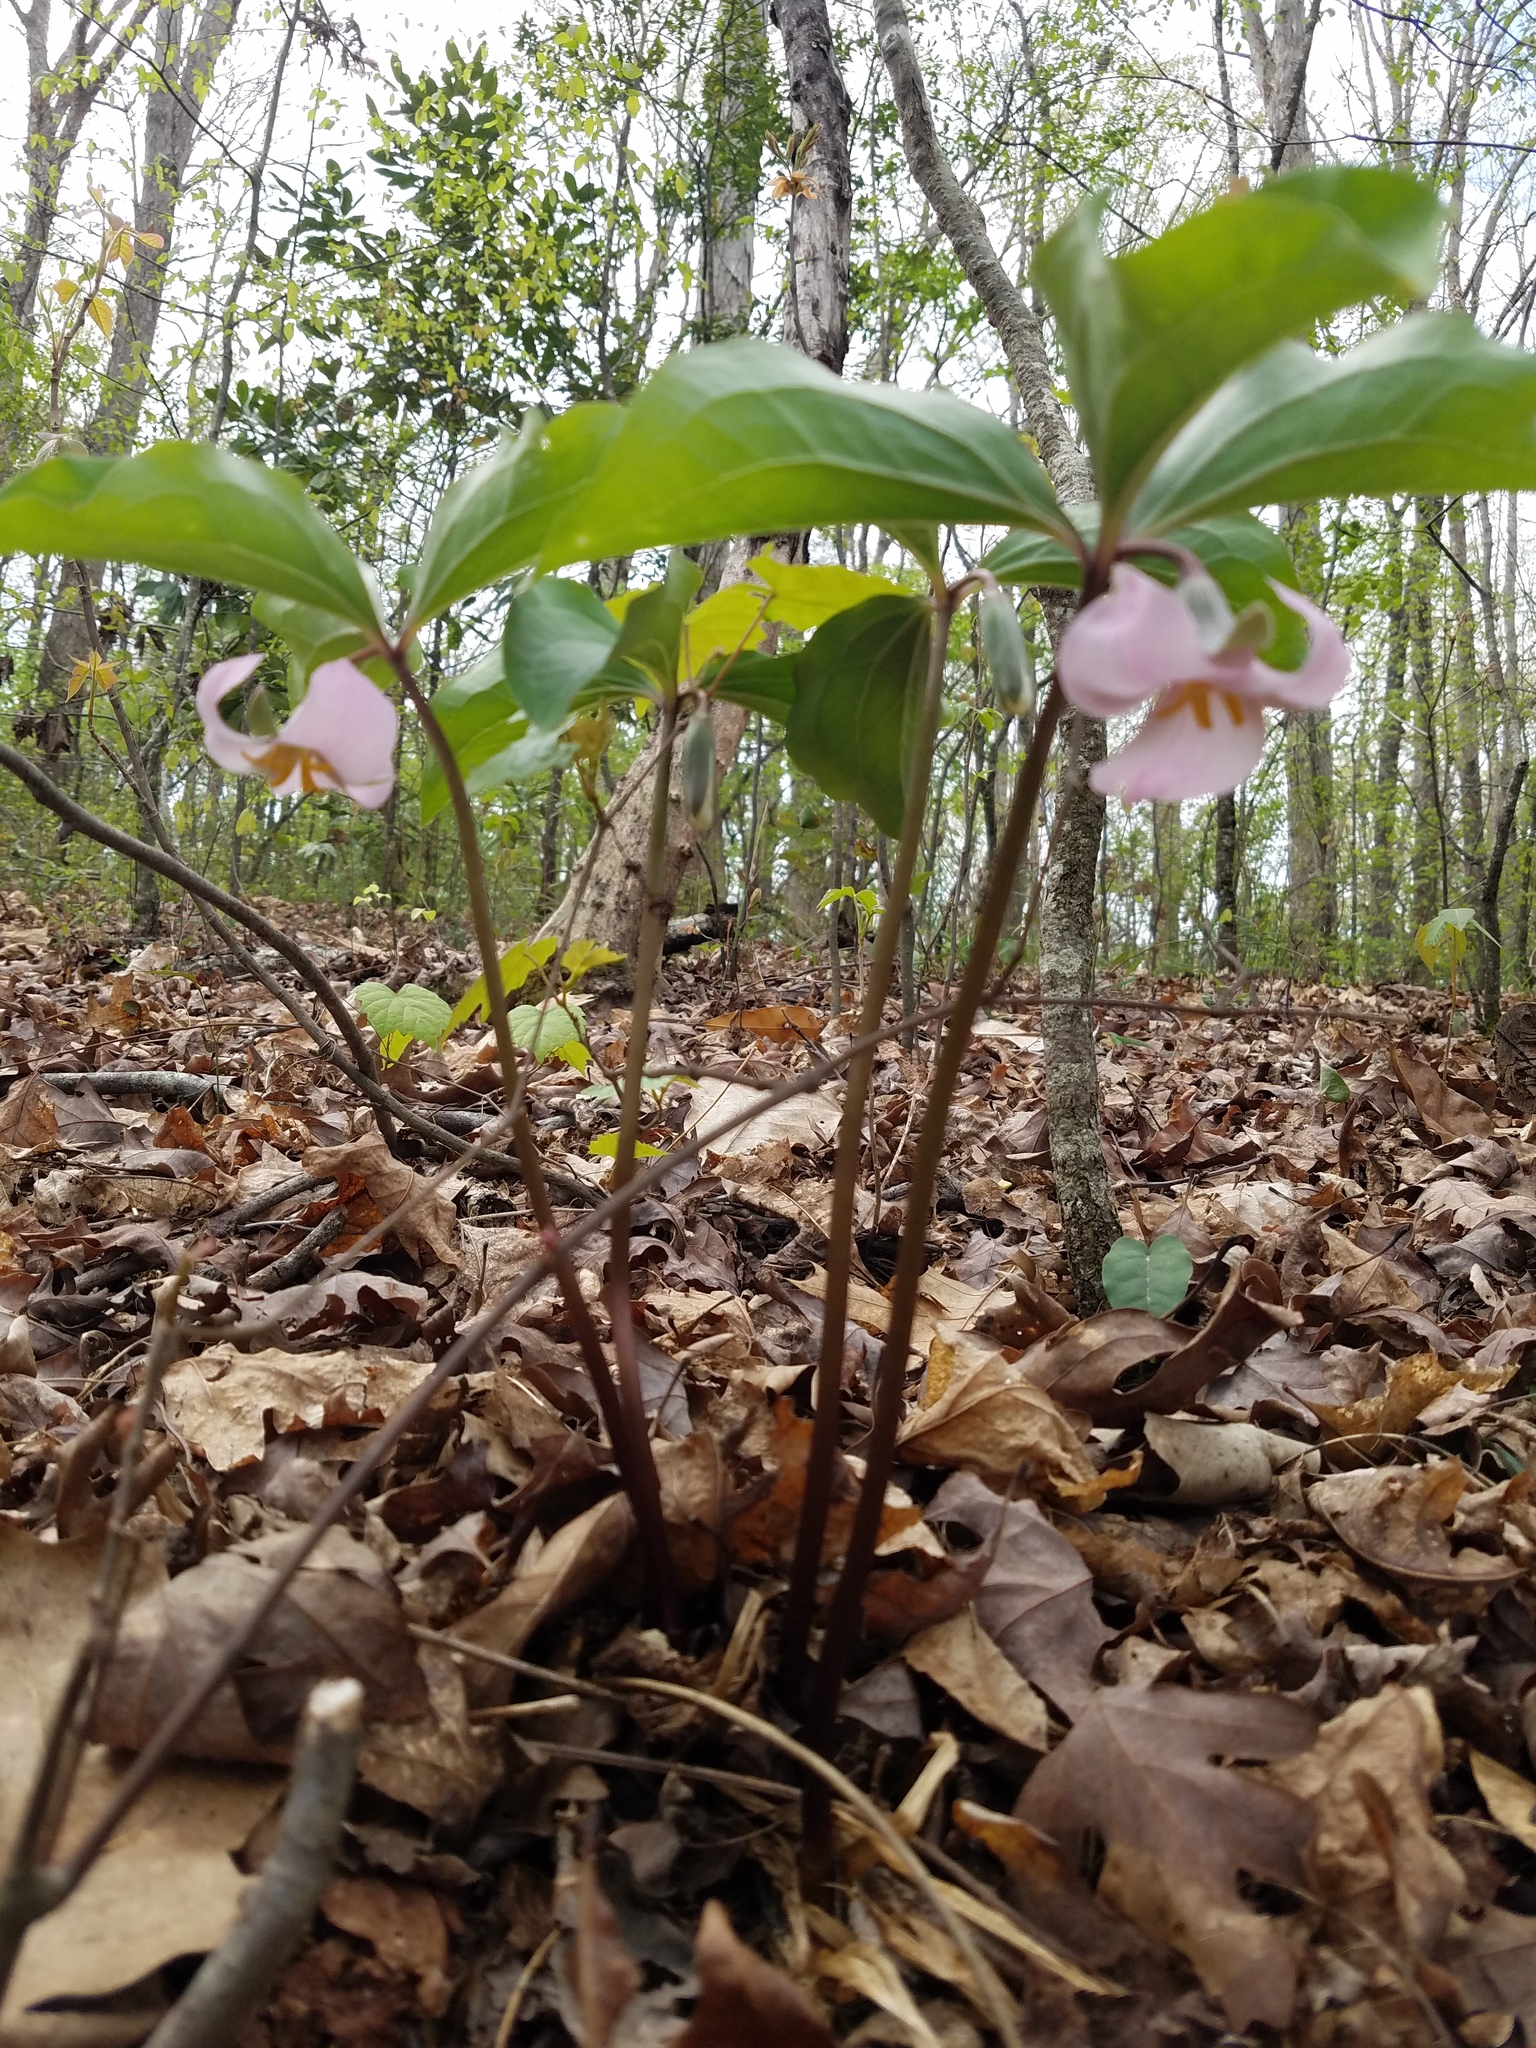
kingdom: Plantae
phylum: Tracheophyta
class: Liliopsida
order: Liliales
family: Melanthiaceae
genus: Trillium
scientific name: Trillium catesbaei
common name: Bashful trillium
